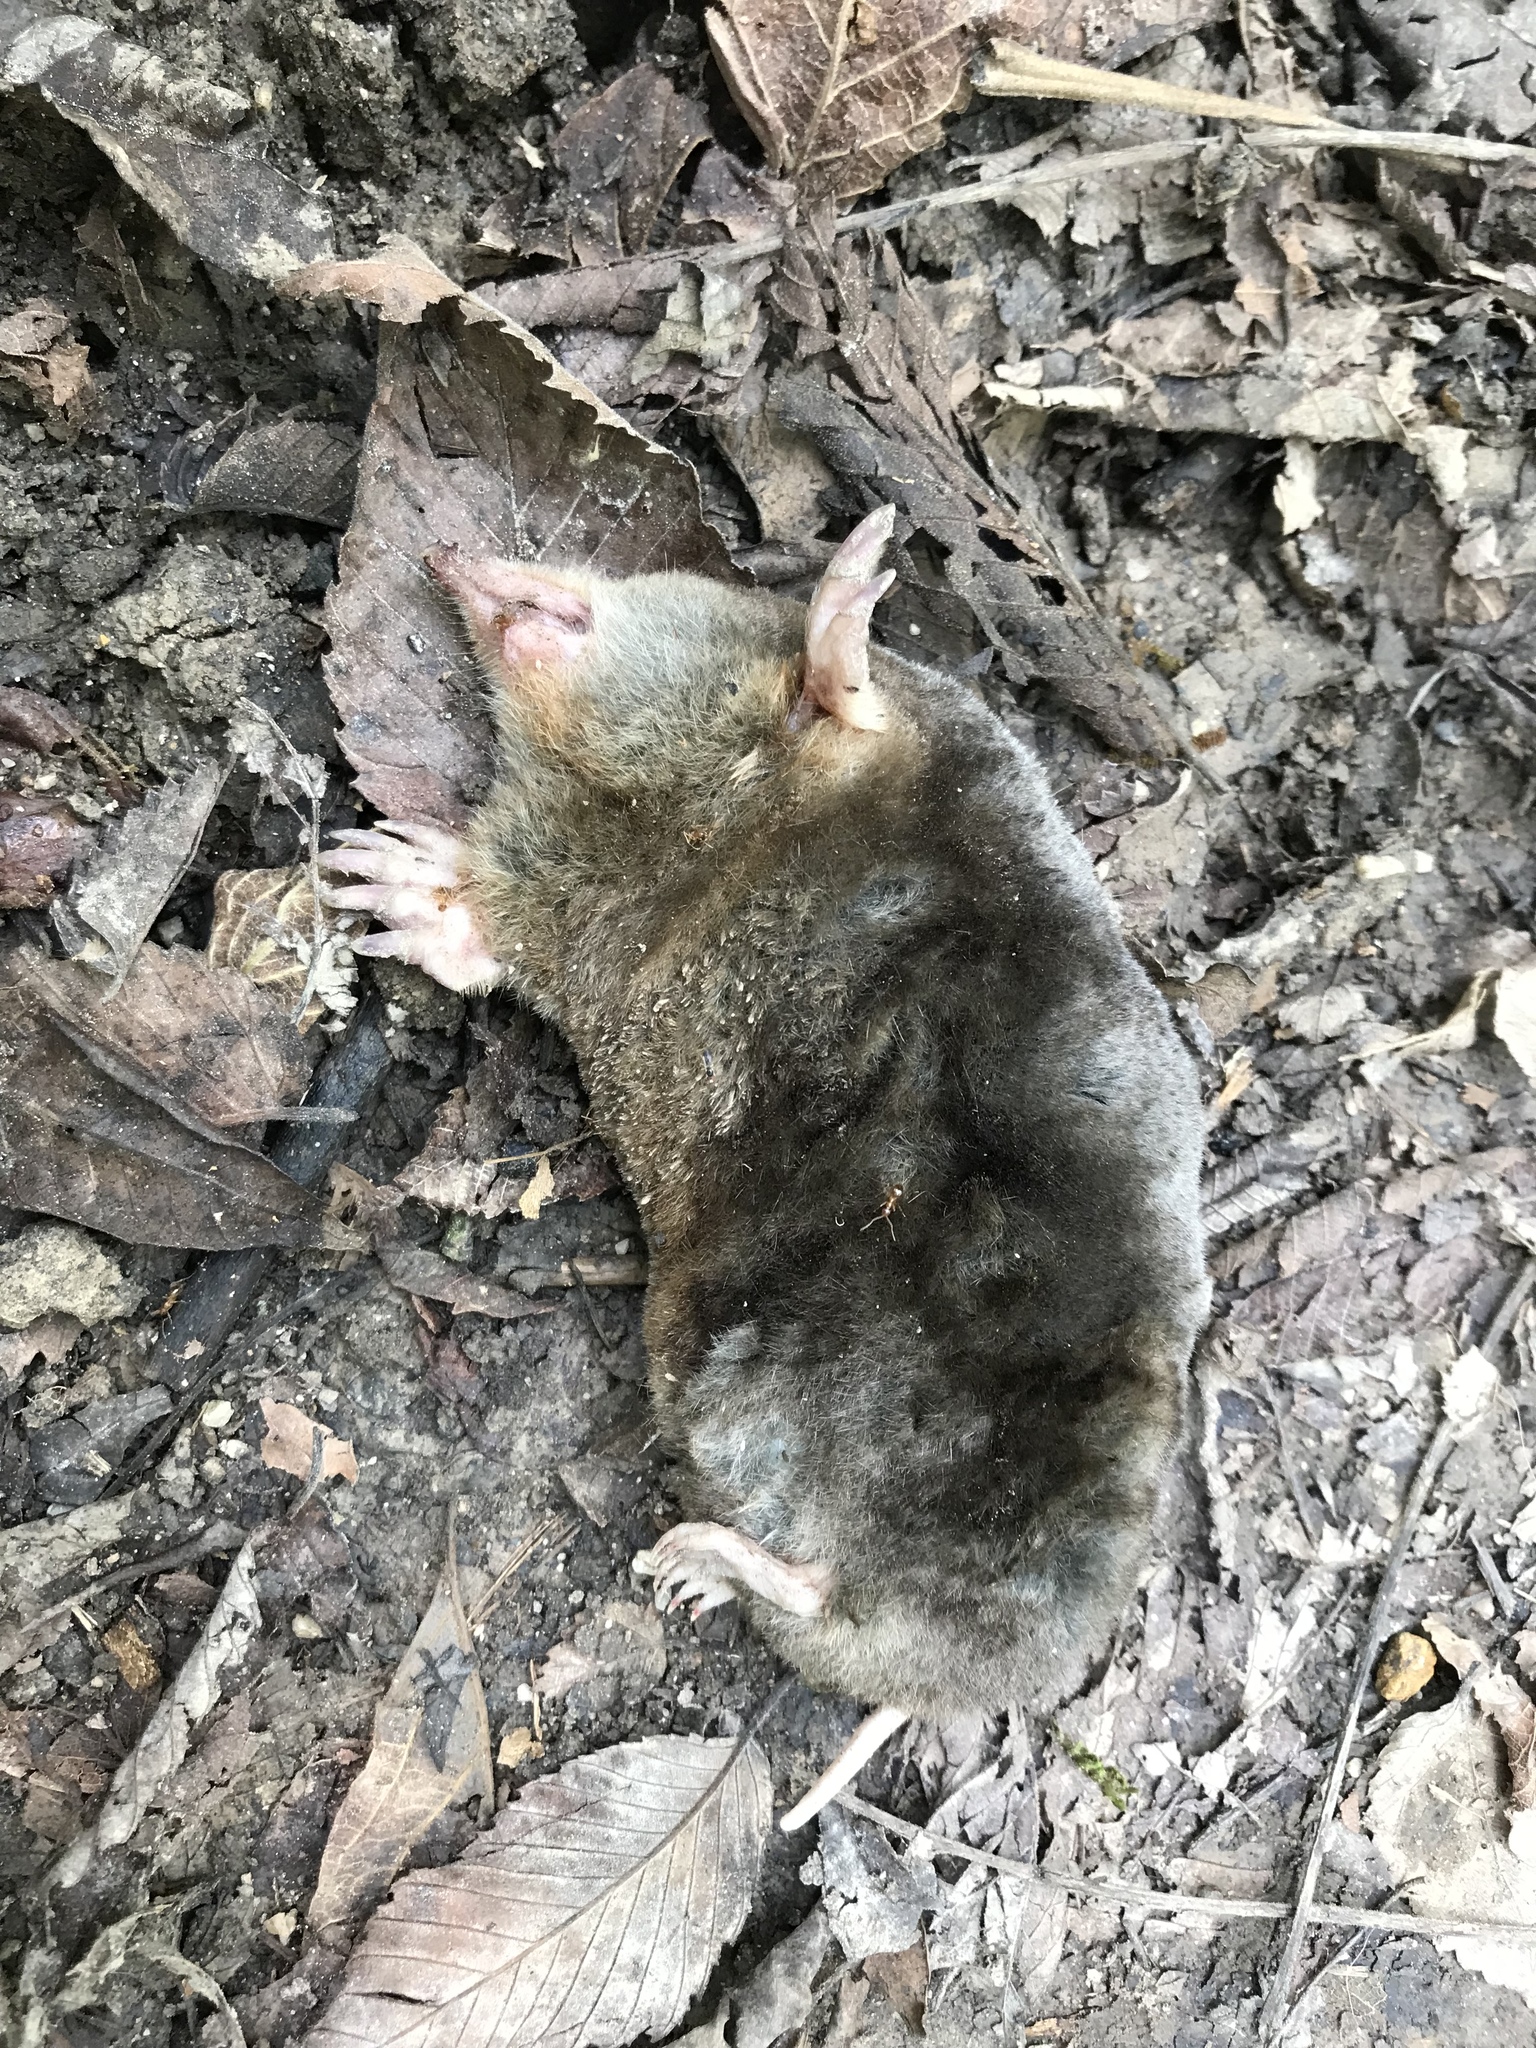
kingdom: Animalia
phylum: Chordata
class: Mammalia
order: Soricomorpha
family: Talpidae
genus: Scalopus
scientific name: Scalopus aquaticus
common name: Eastern mole
